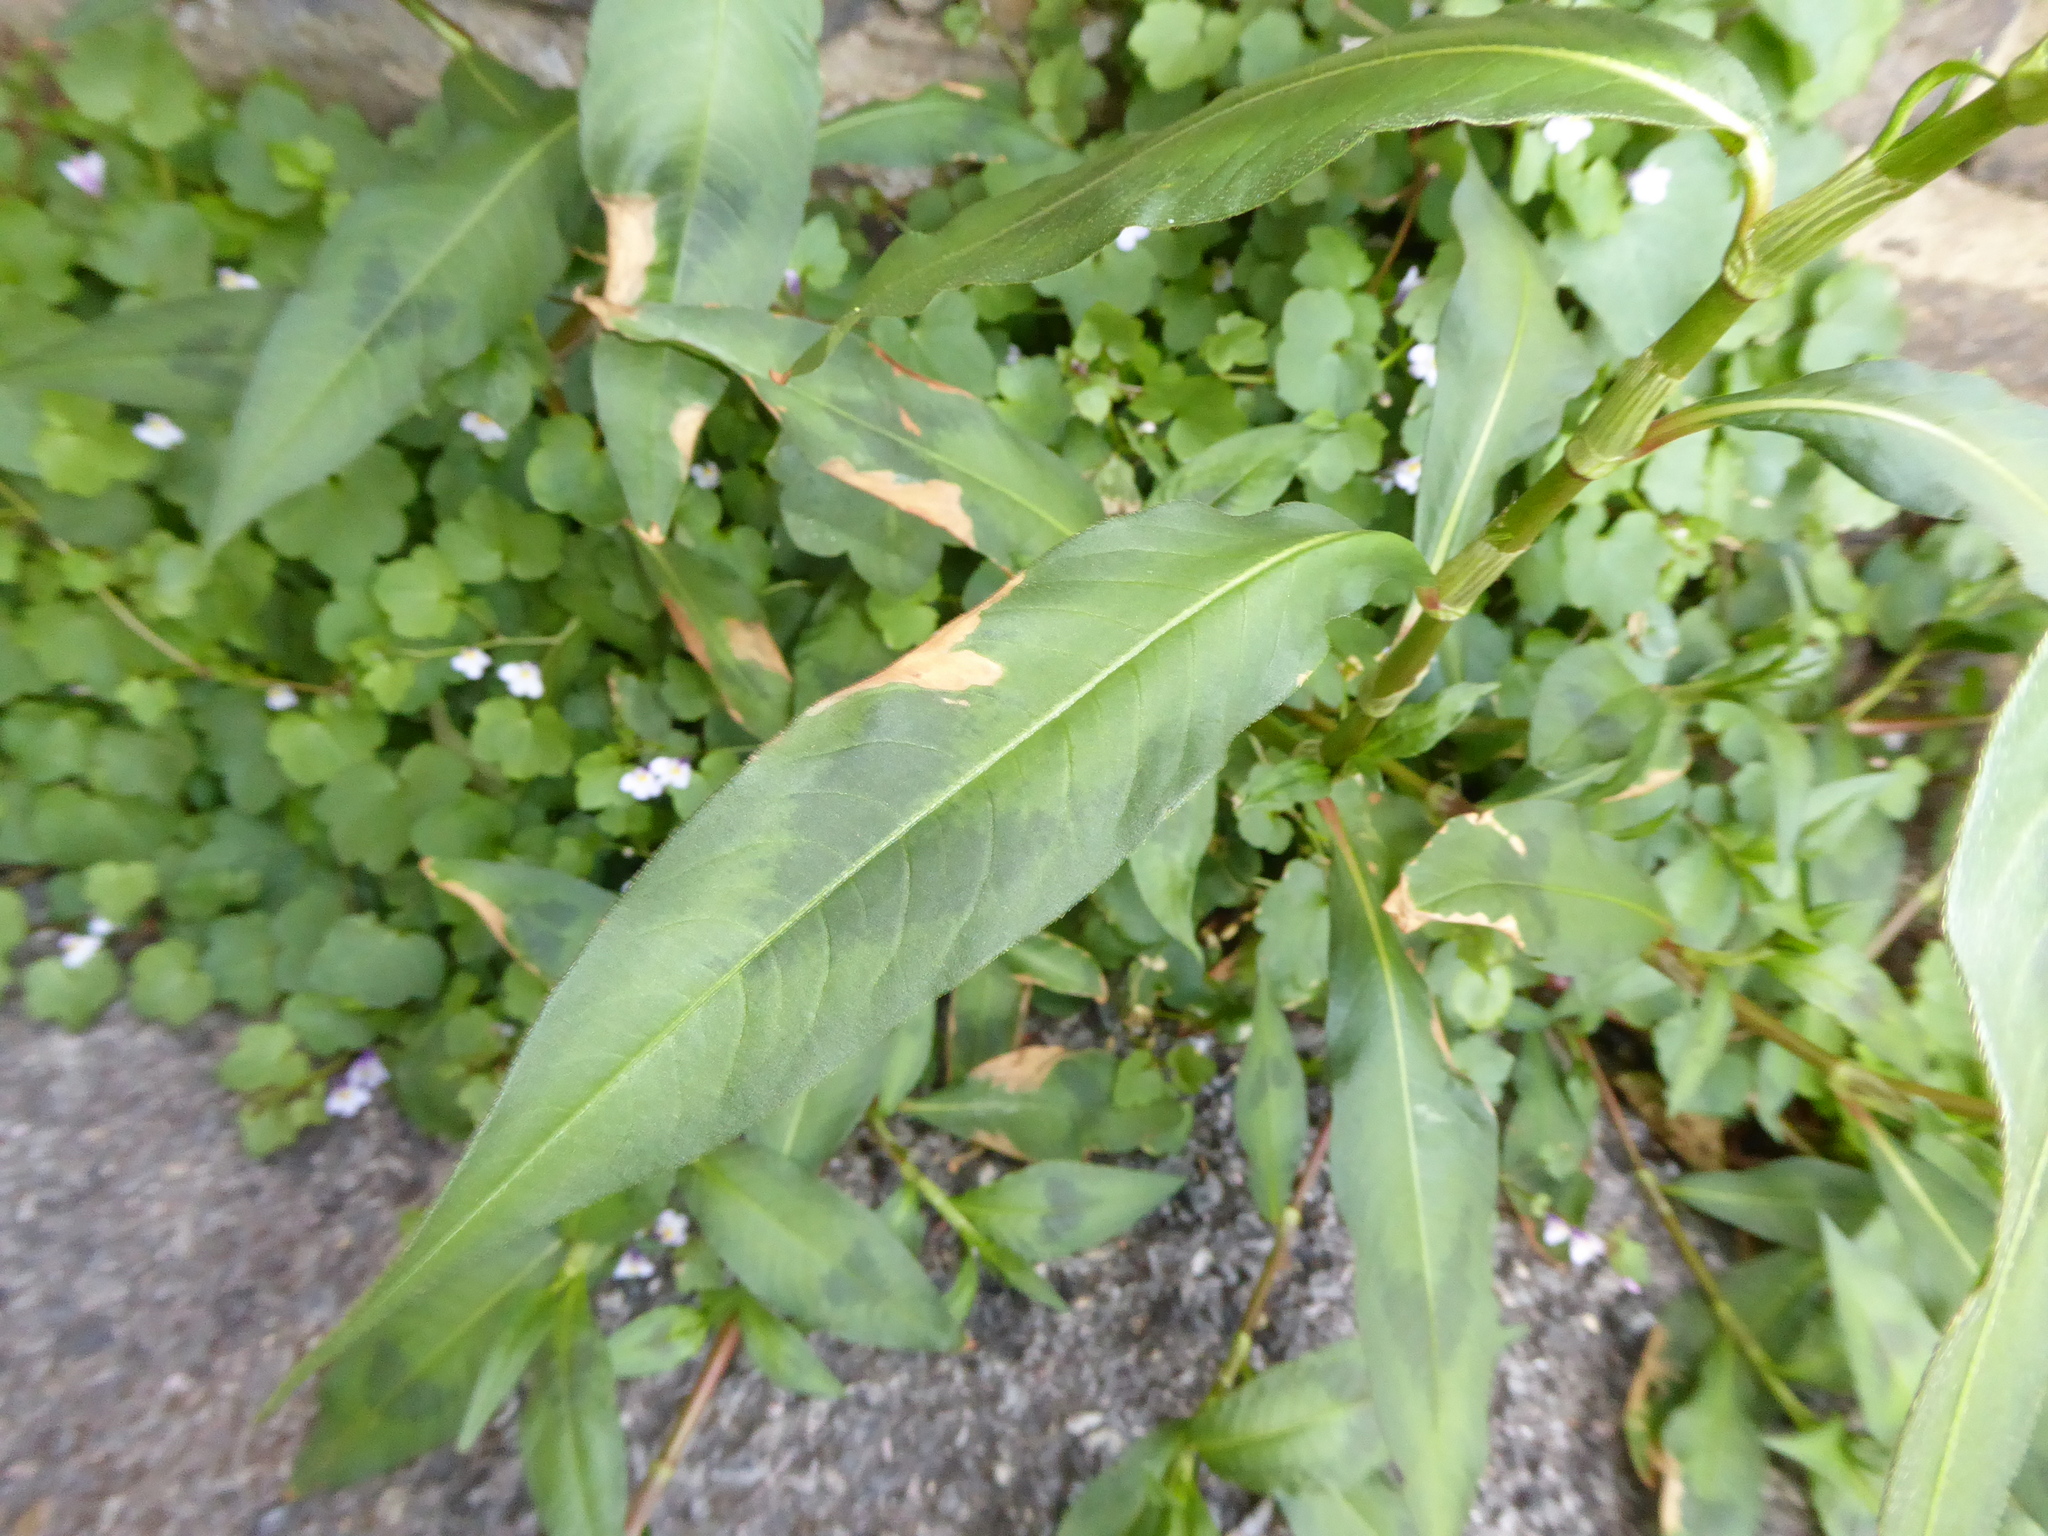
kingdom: Plantae
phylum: Tracheophyta
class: Magnoliopsida
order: Caryophyllales
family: Polygonaceae
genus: Persicaria
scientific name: Persicaria maculosa
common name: Redshank
